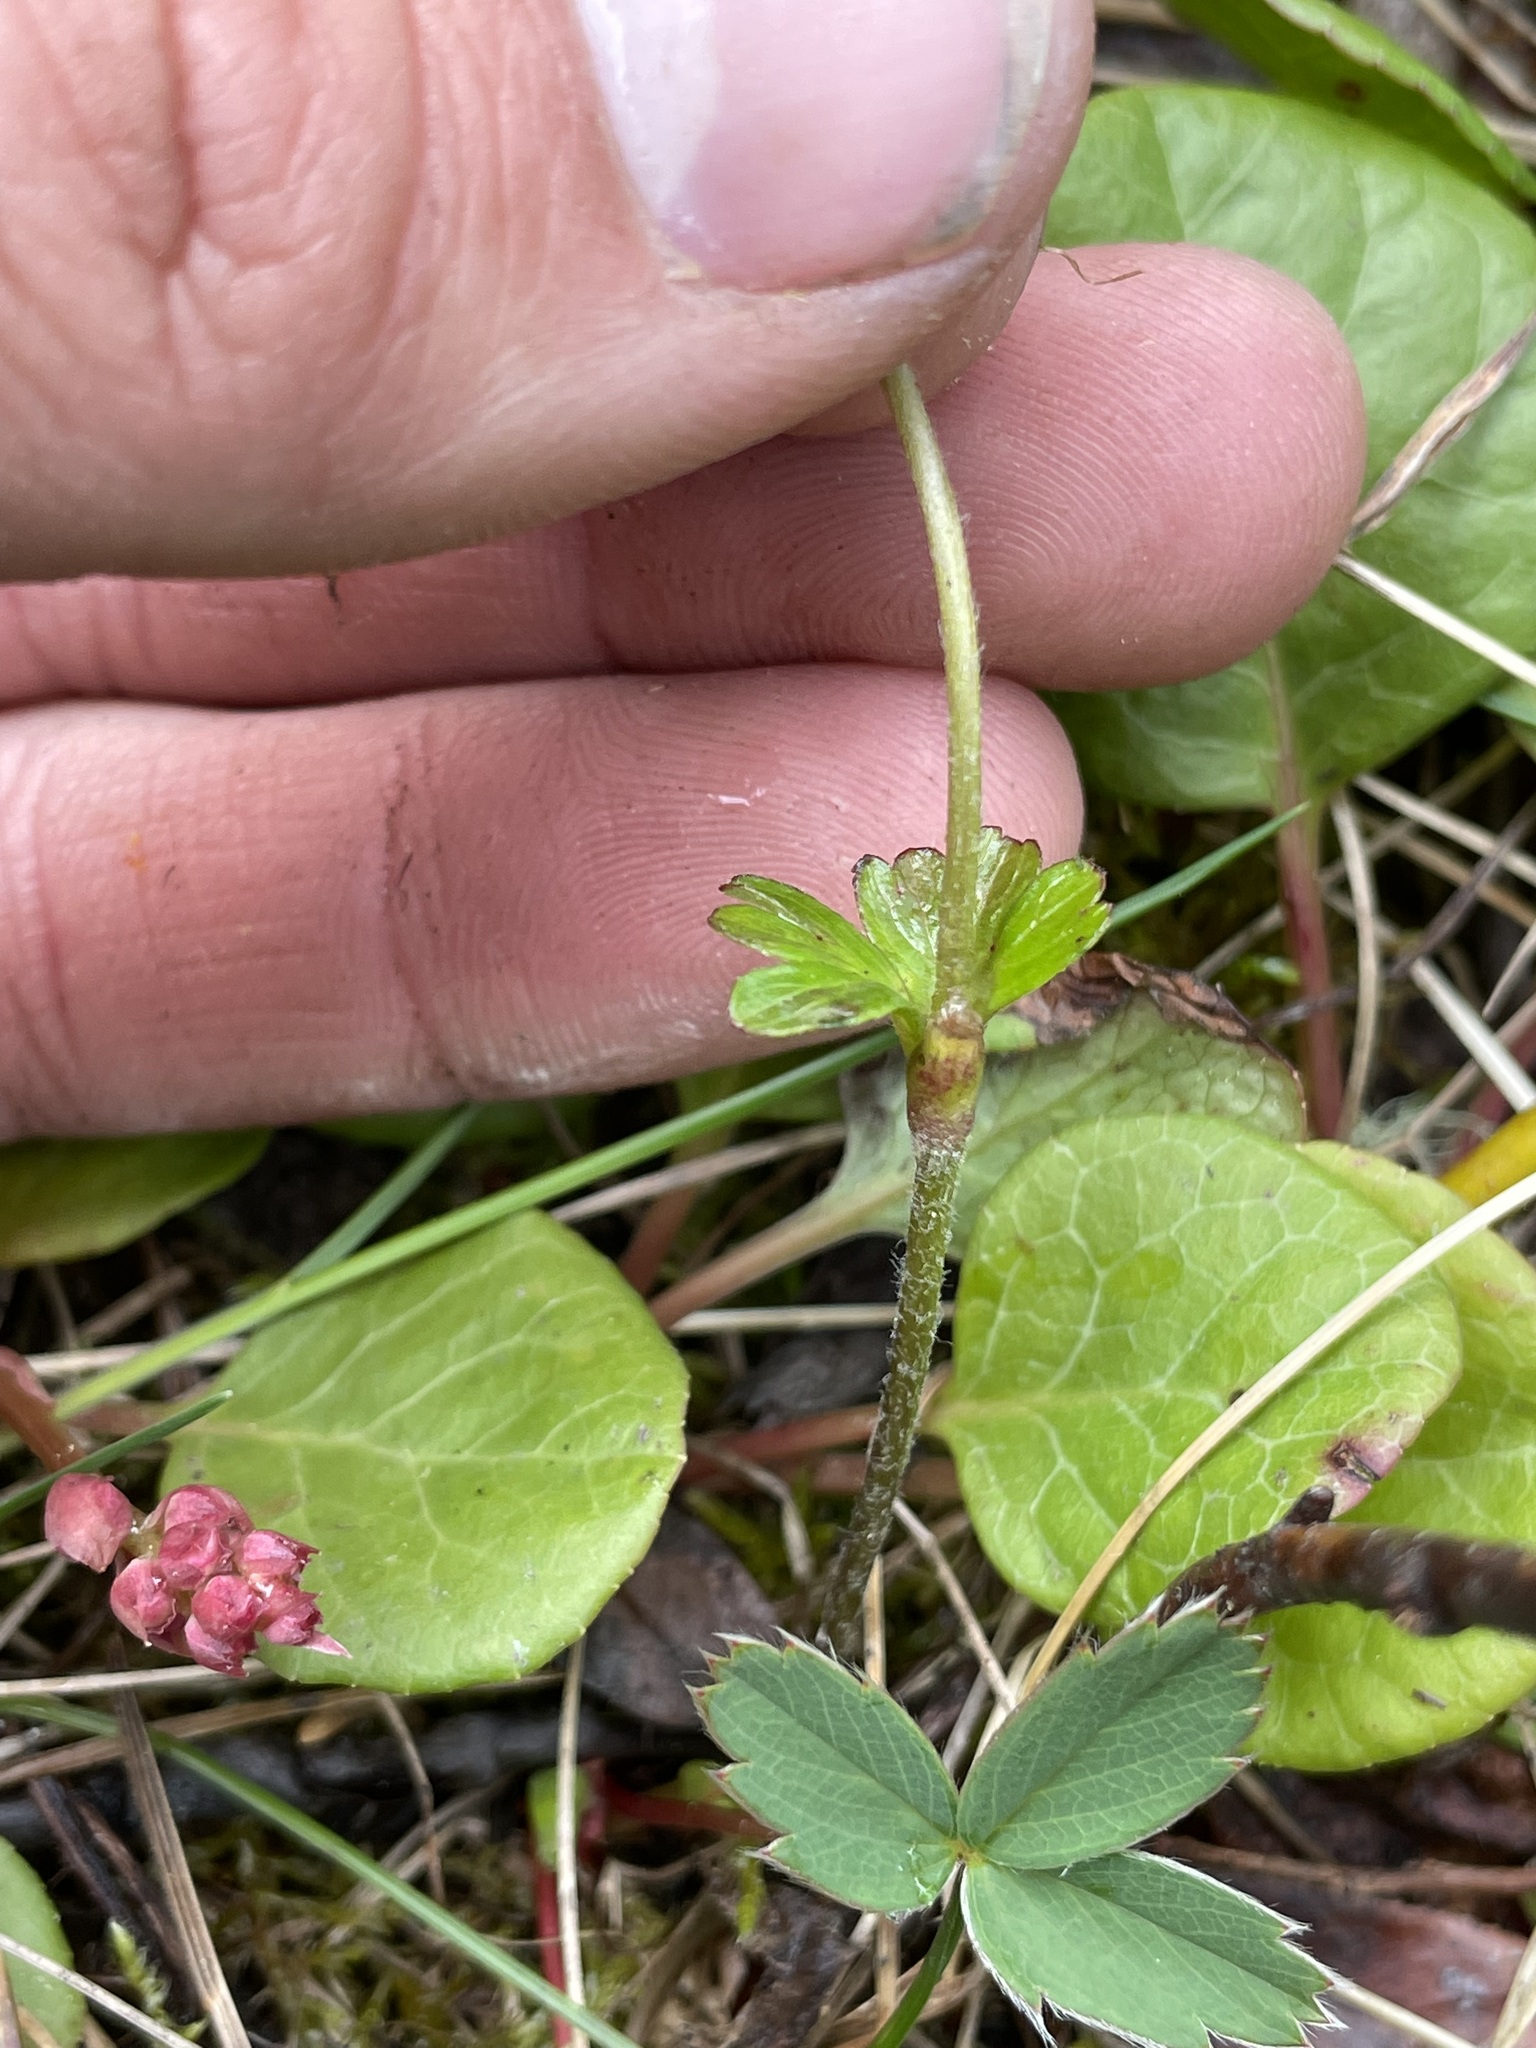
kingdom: Plantae
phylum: Tracheophyta
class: Magnoliopsida
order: Ranunculales
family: Ranunculaceae
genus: Anemone
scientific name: Anemone parviflora
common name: Northern anemone
